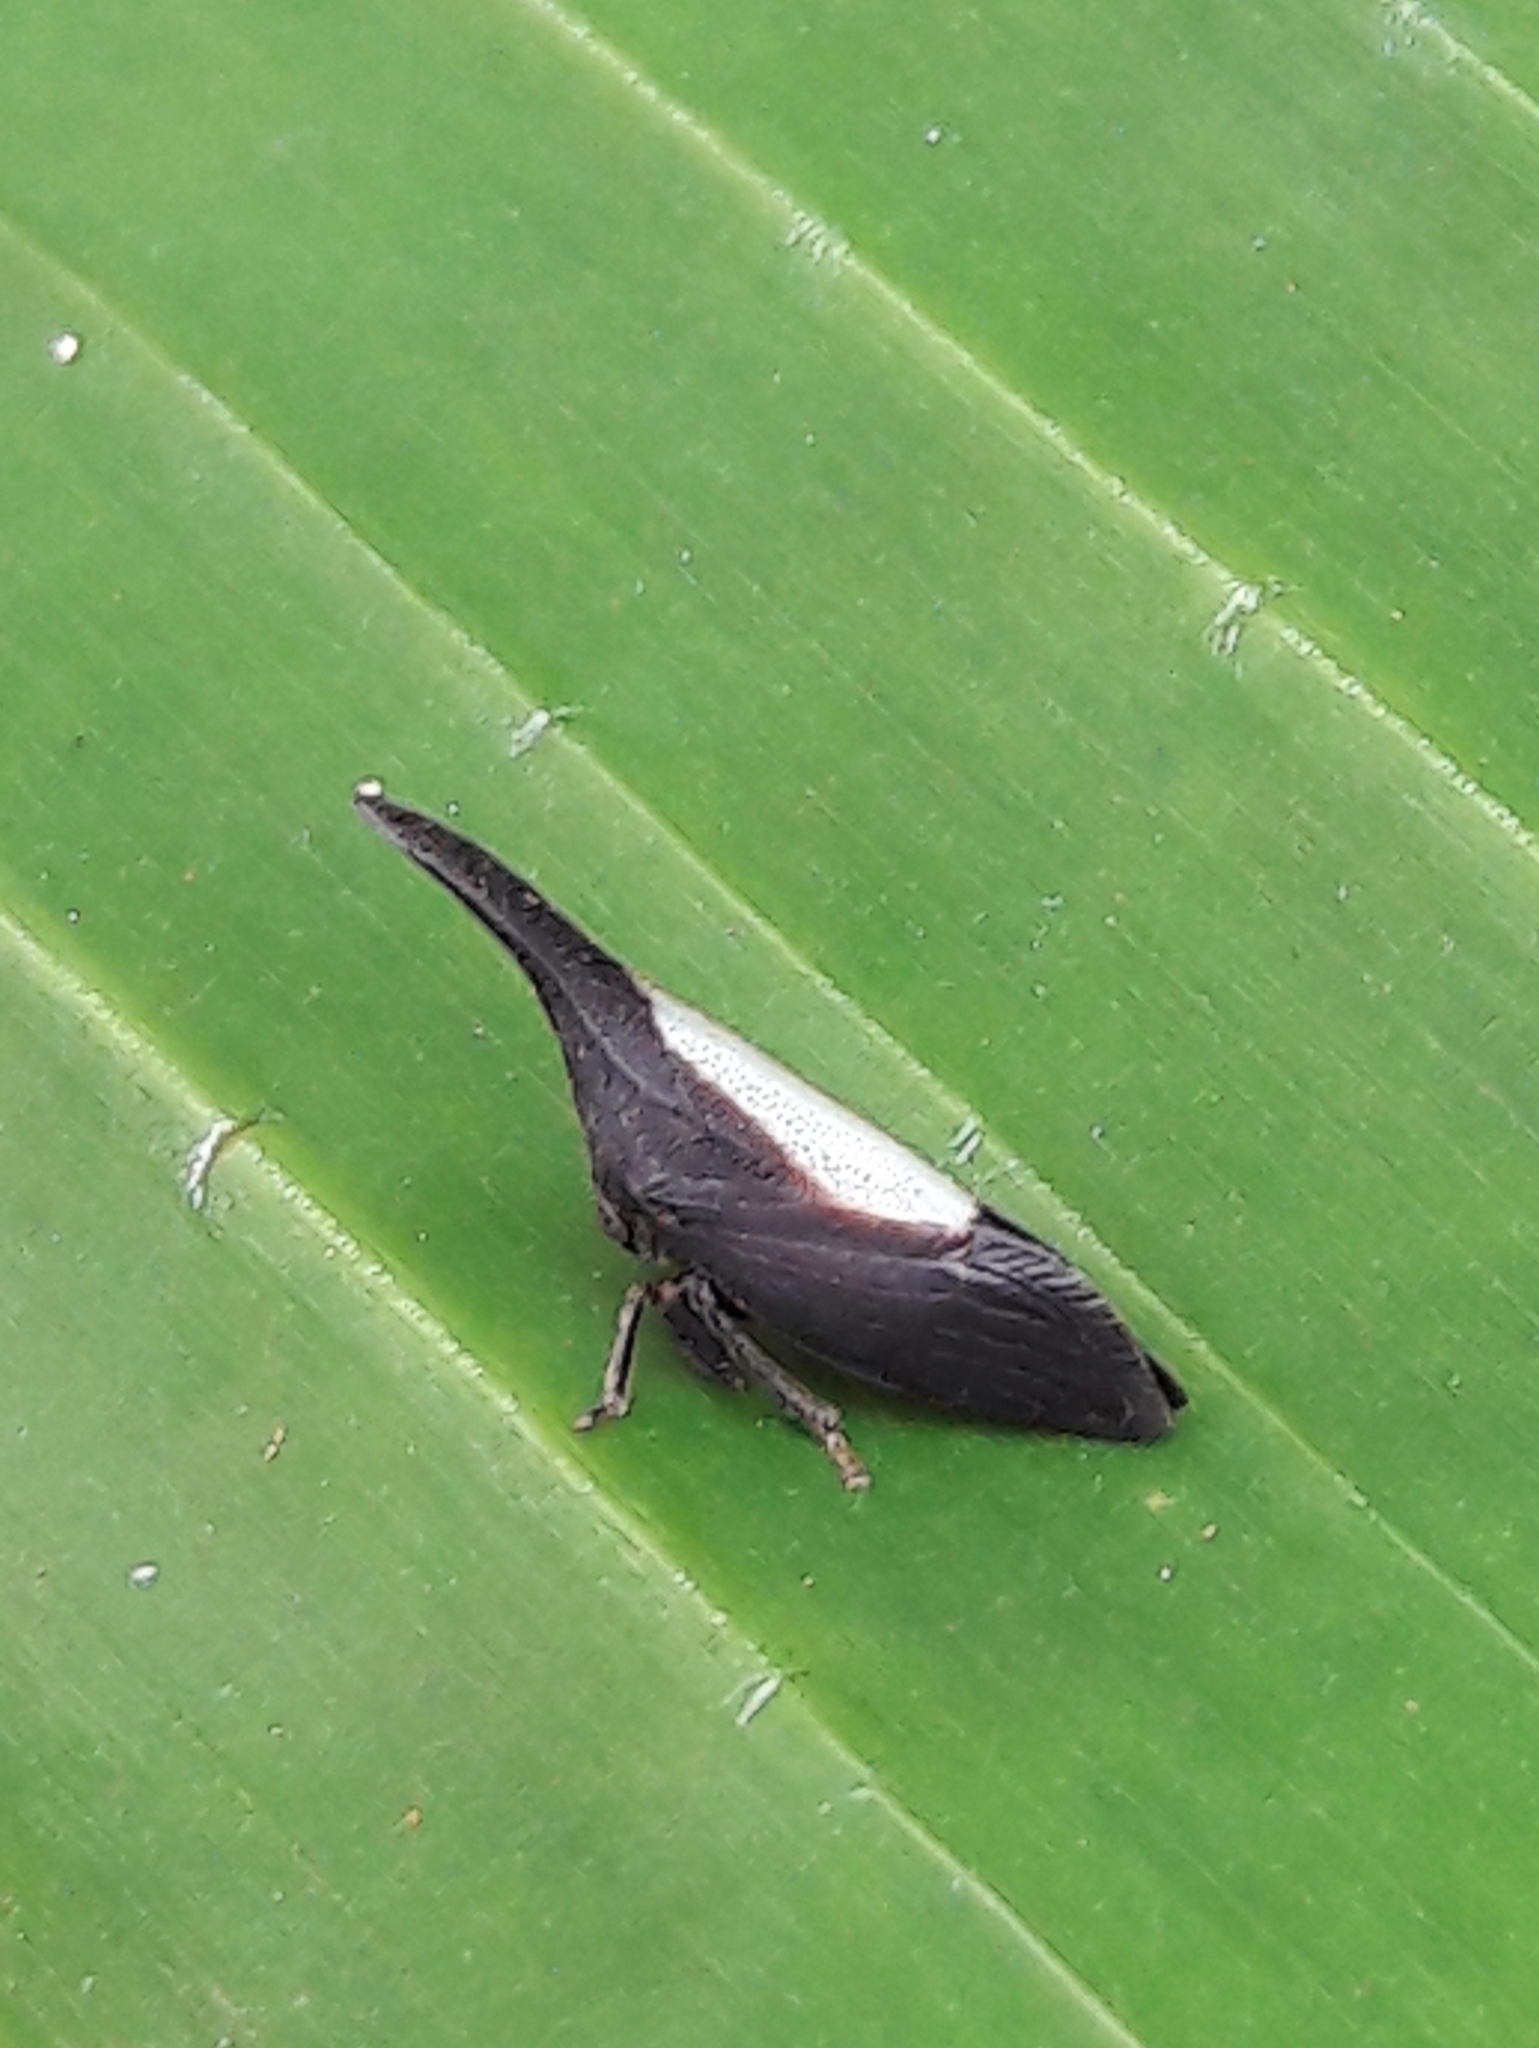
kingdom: Animalia
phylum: Arthropoda
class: Insecta
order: Hemiptera
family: Membracidae
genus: Enchenopa
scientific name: Enchenopa albidorsa
